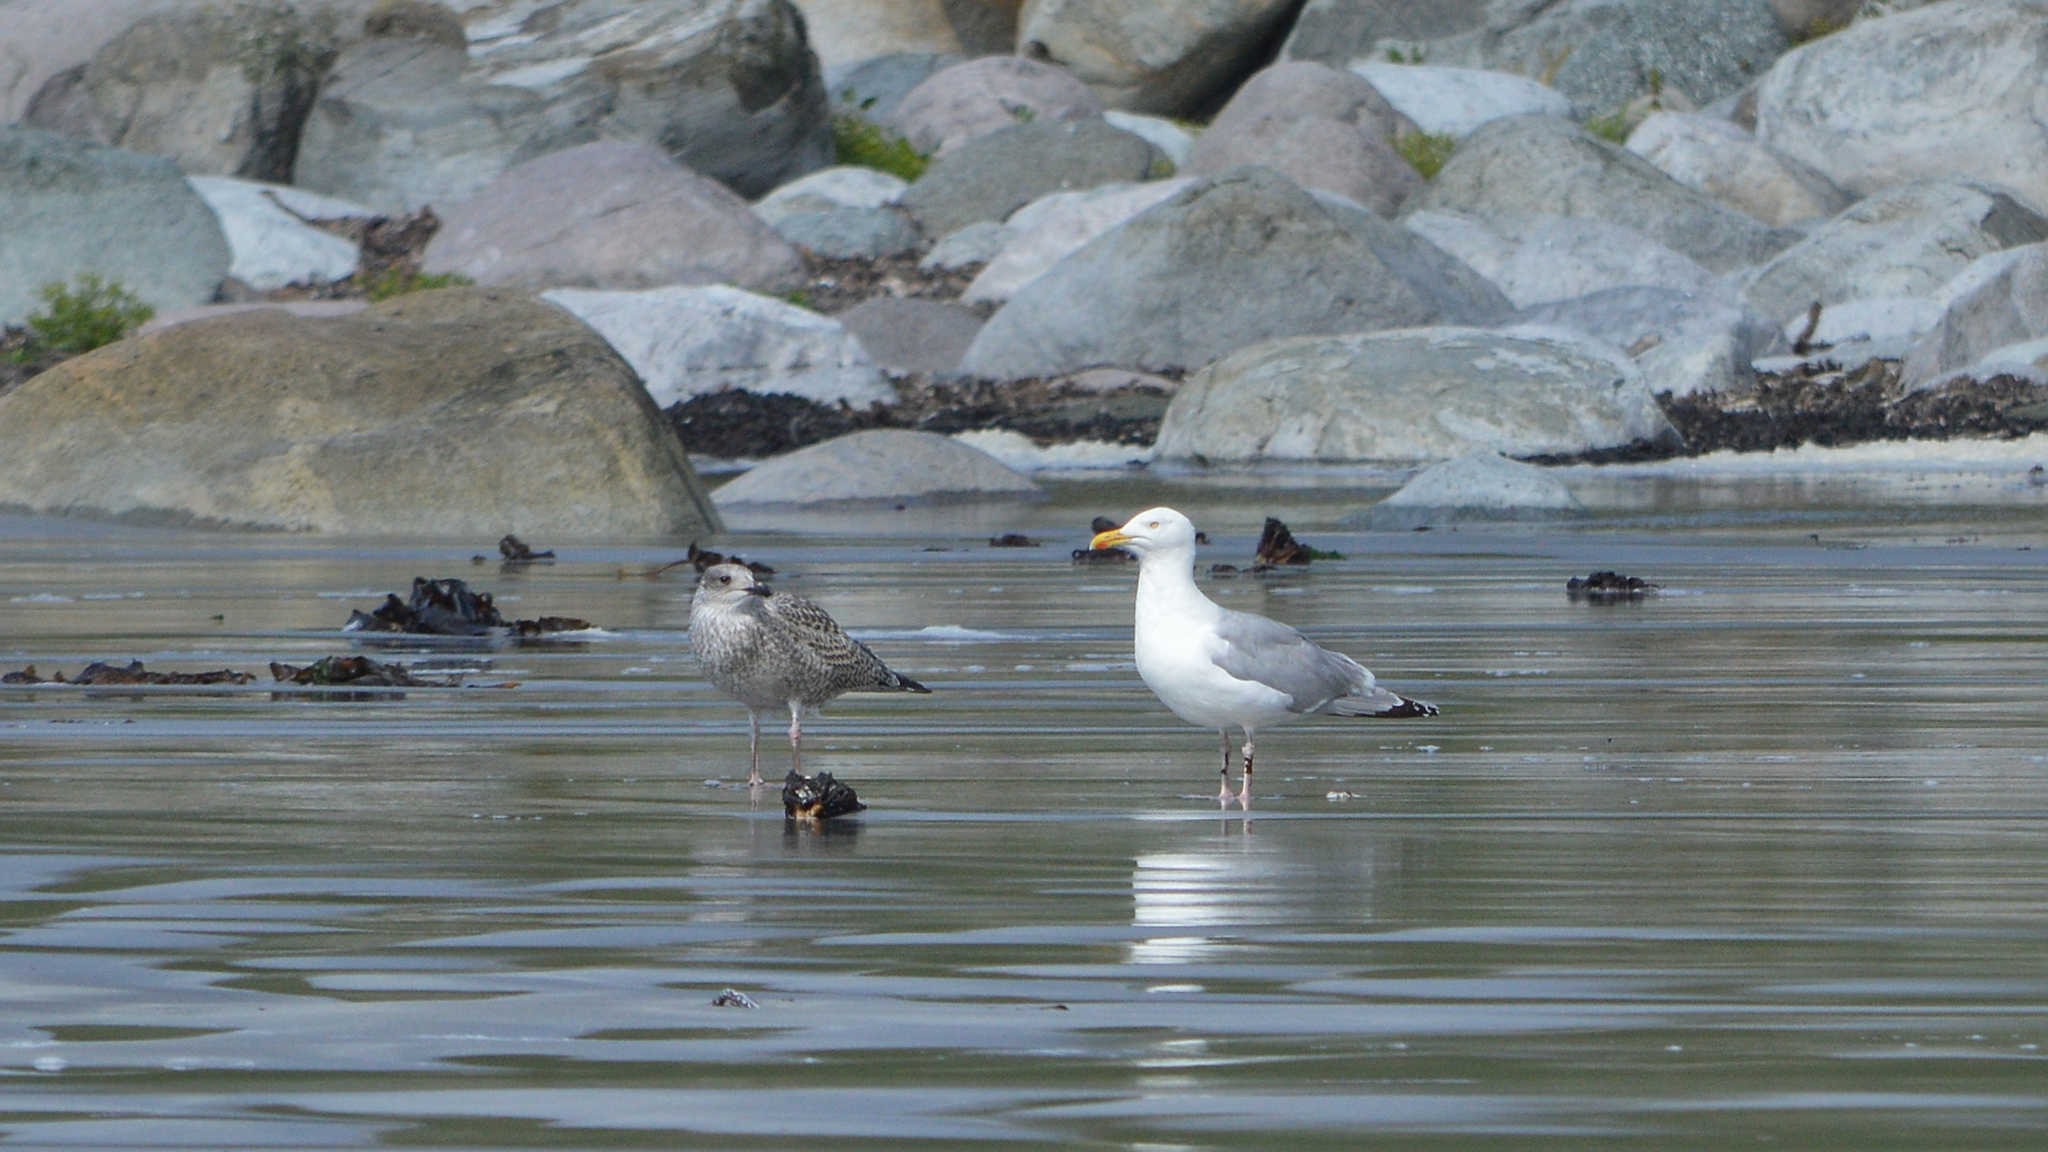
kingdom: Animalia
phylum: Chordata
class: Aves
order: Charadriiformes
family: Laridae
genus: Larus
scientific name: Larus argentatus
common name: Herring gull
